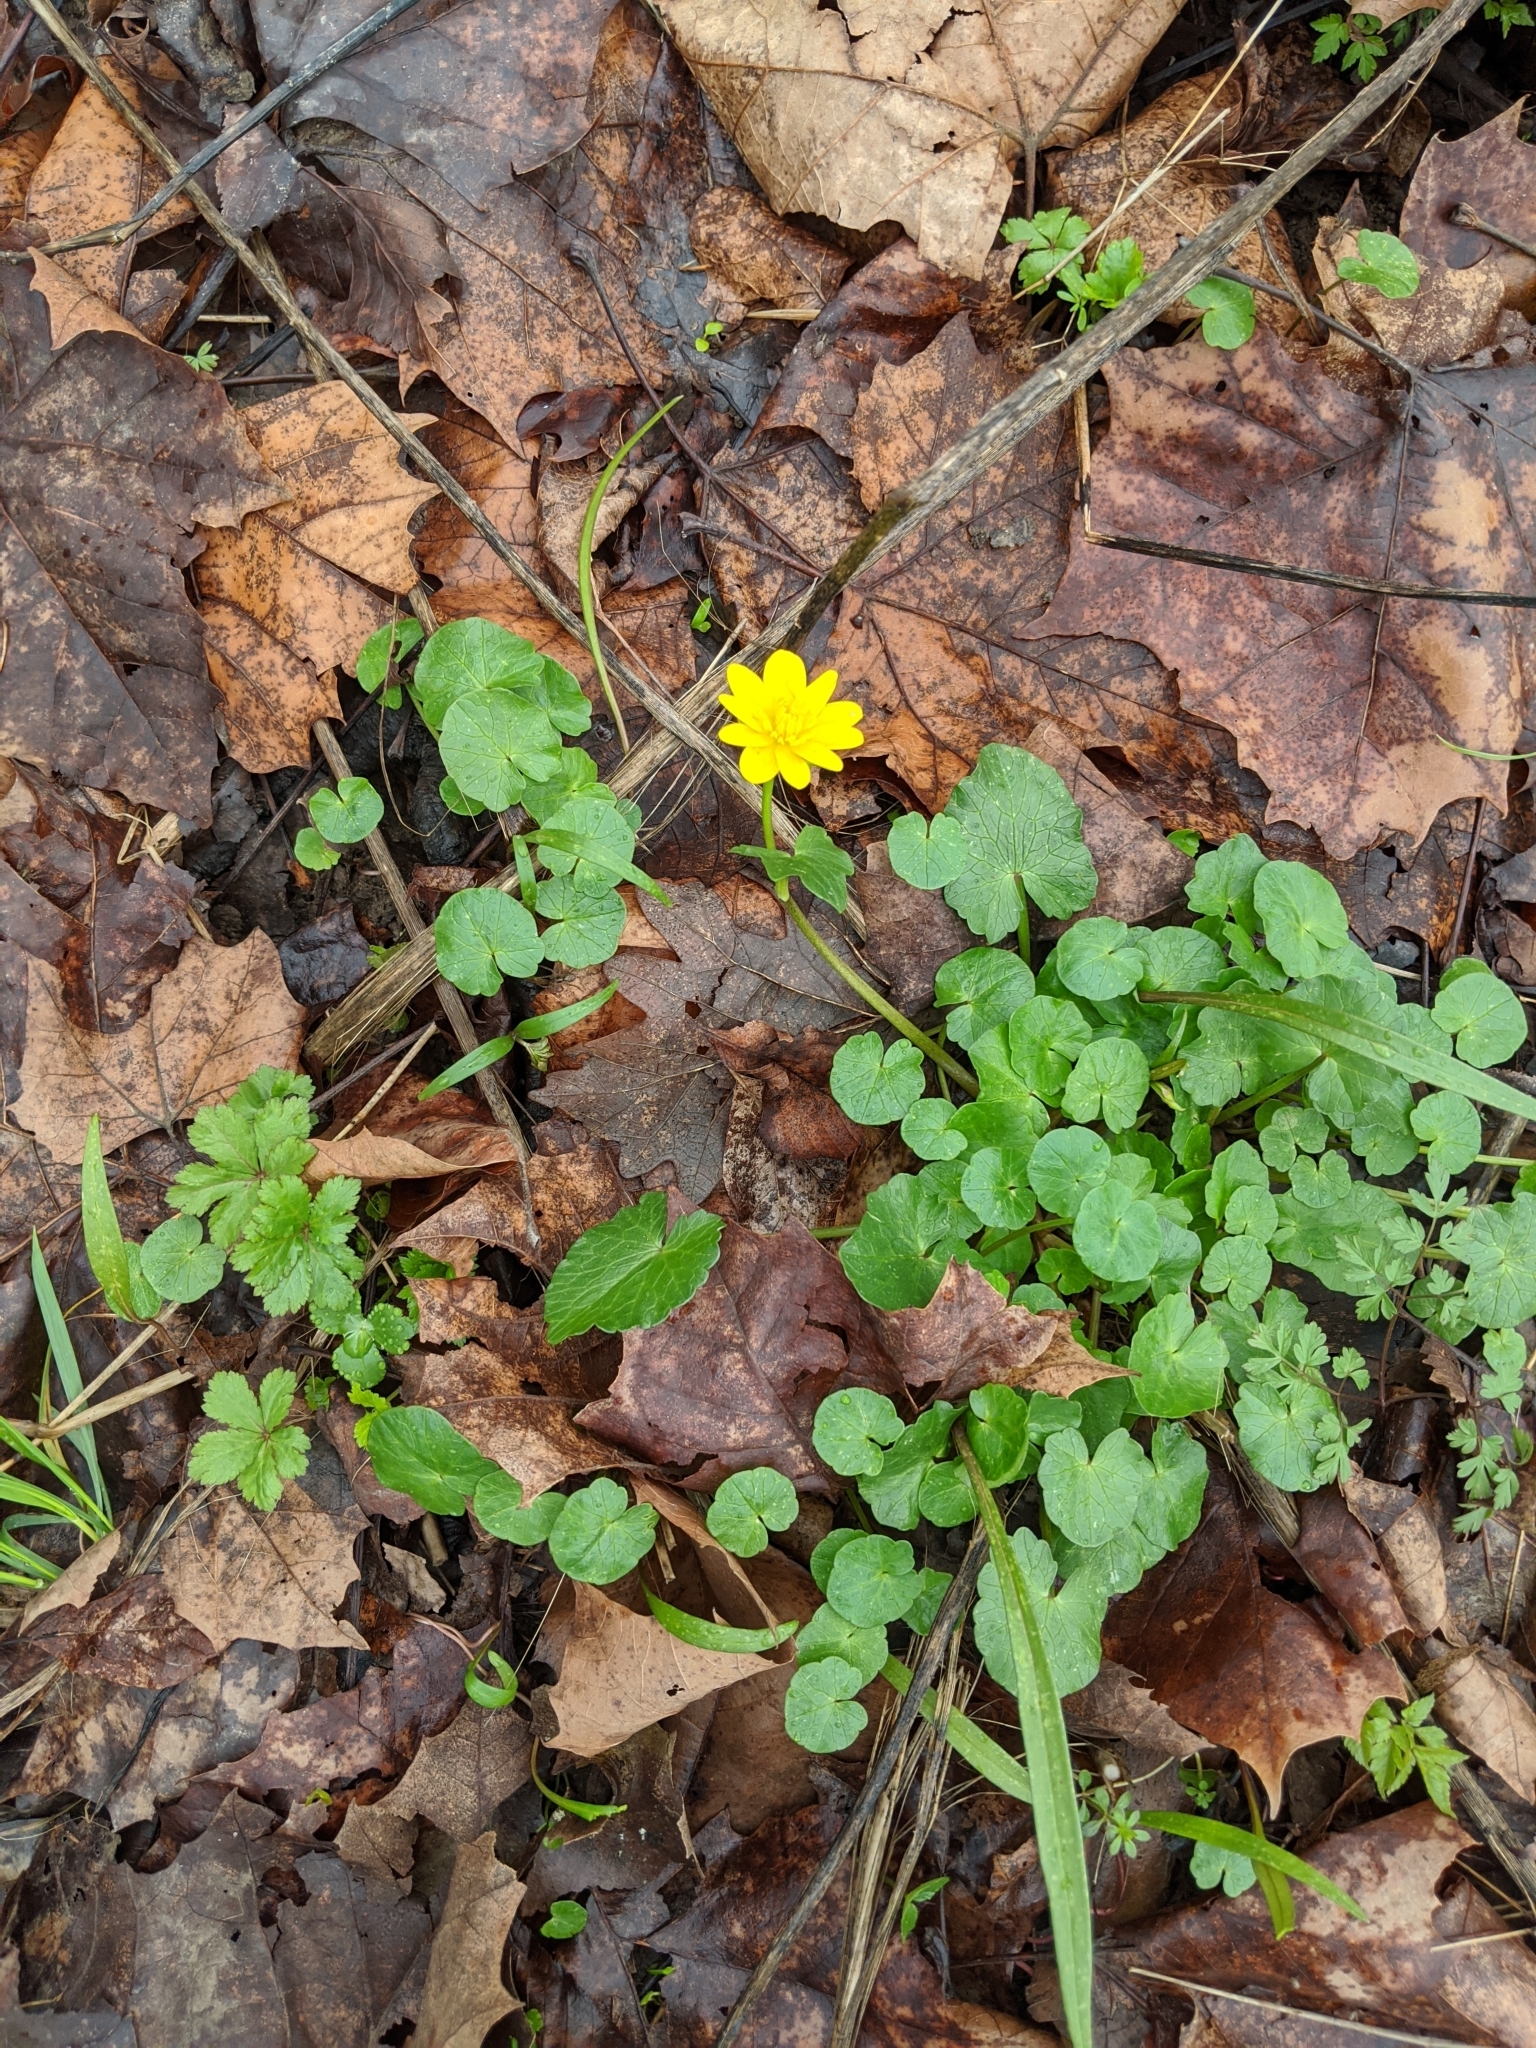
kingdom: Plantae
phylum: Tracheophyta
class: Magnoliopsida
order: Ranunculales
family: Ranunculaceae
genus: Ficaria
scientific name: Ficaria verna
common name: Lesser celandine
